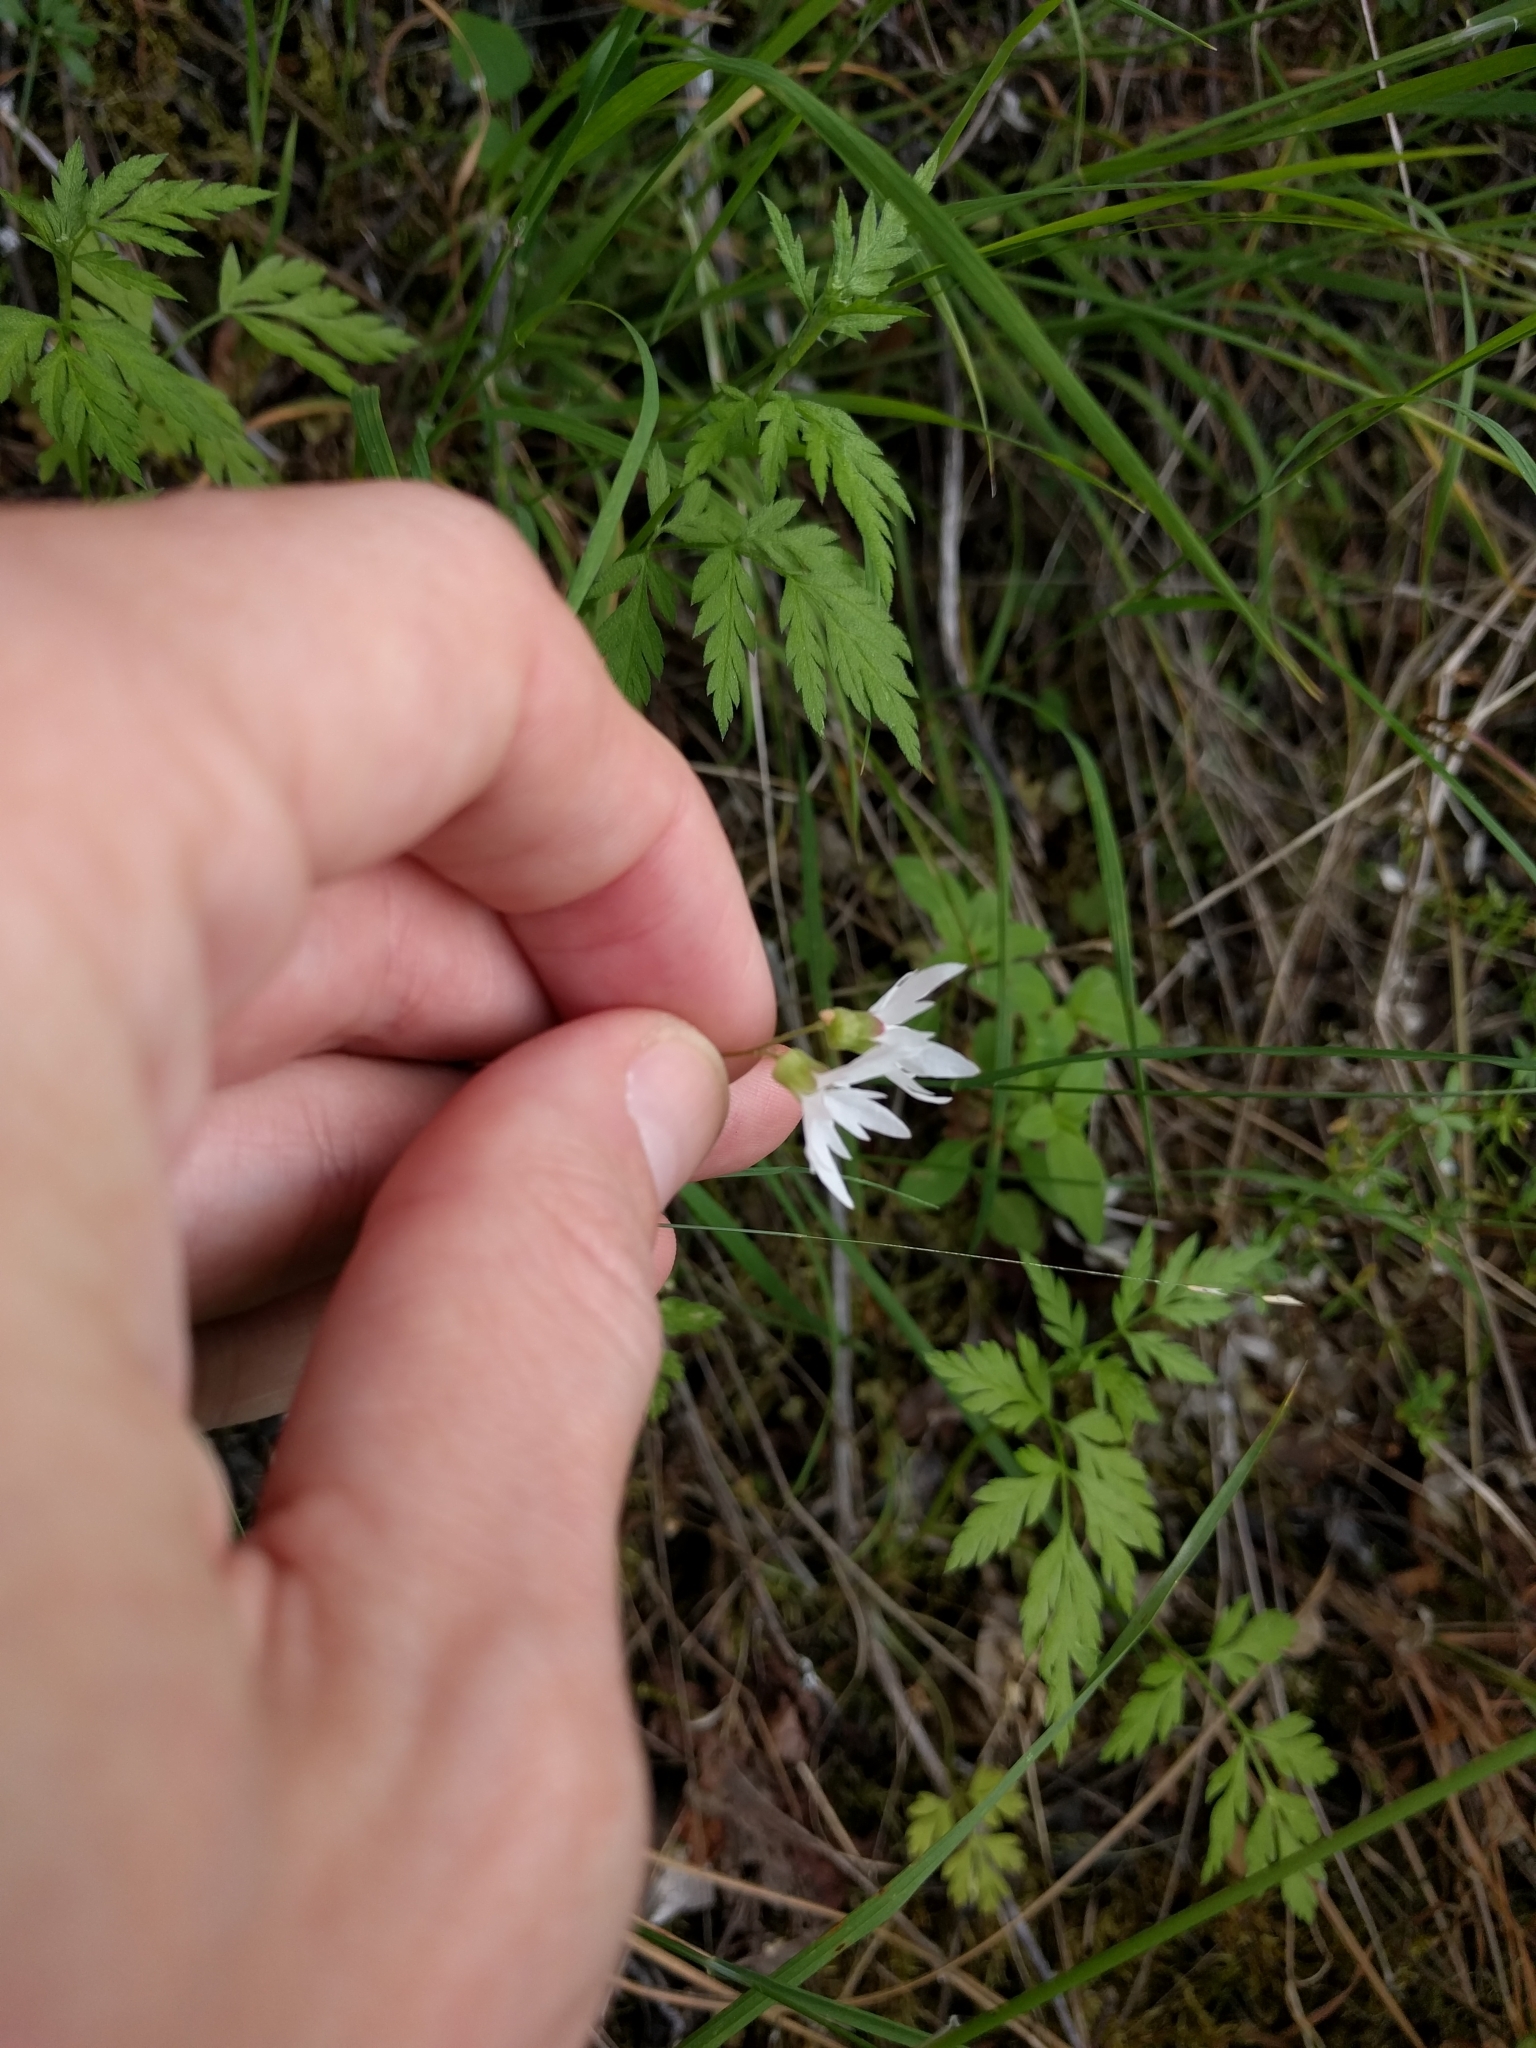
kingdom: Plantae
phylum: Tracheophyta
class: Magnoliopsida
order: Saxifragales
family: Saxifragaceae
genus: Lithophragma
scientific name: Lithophragma heterophyllum
